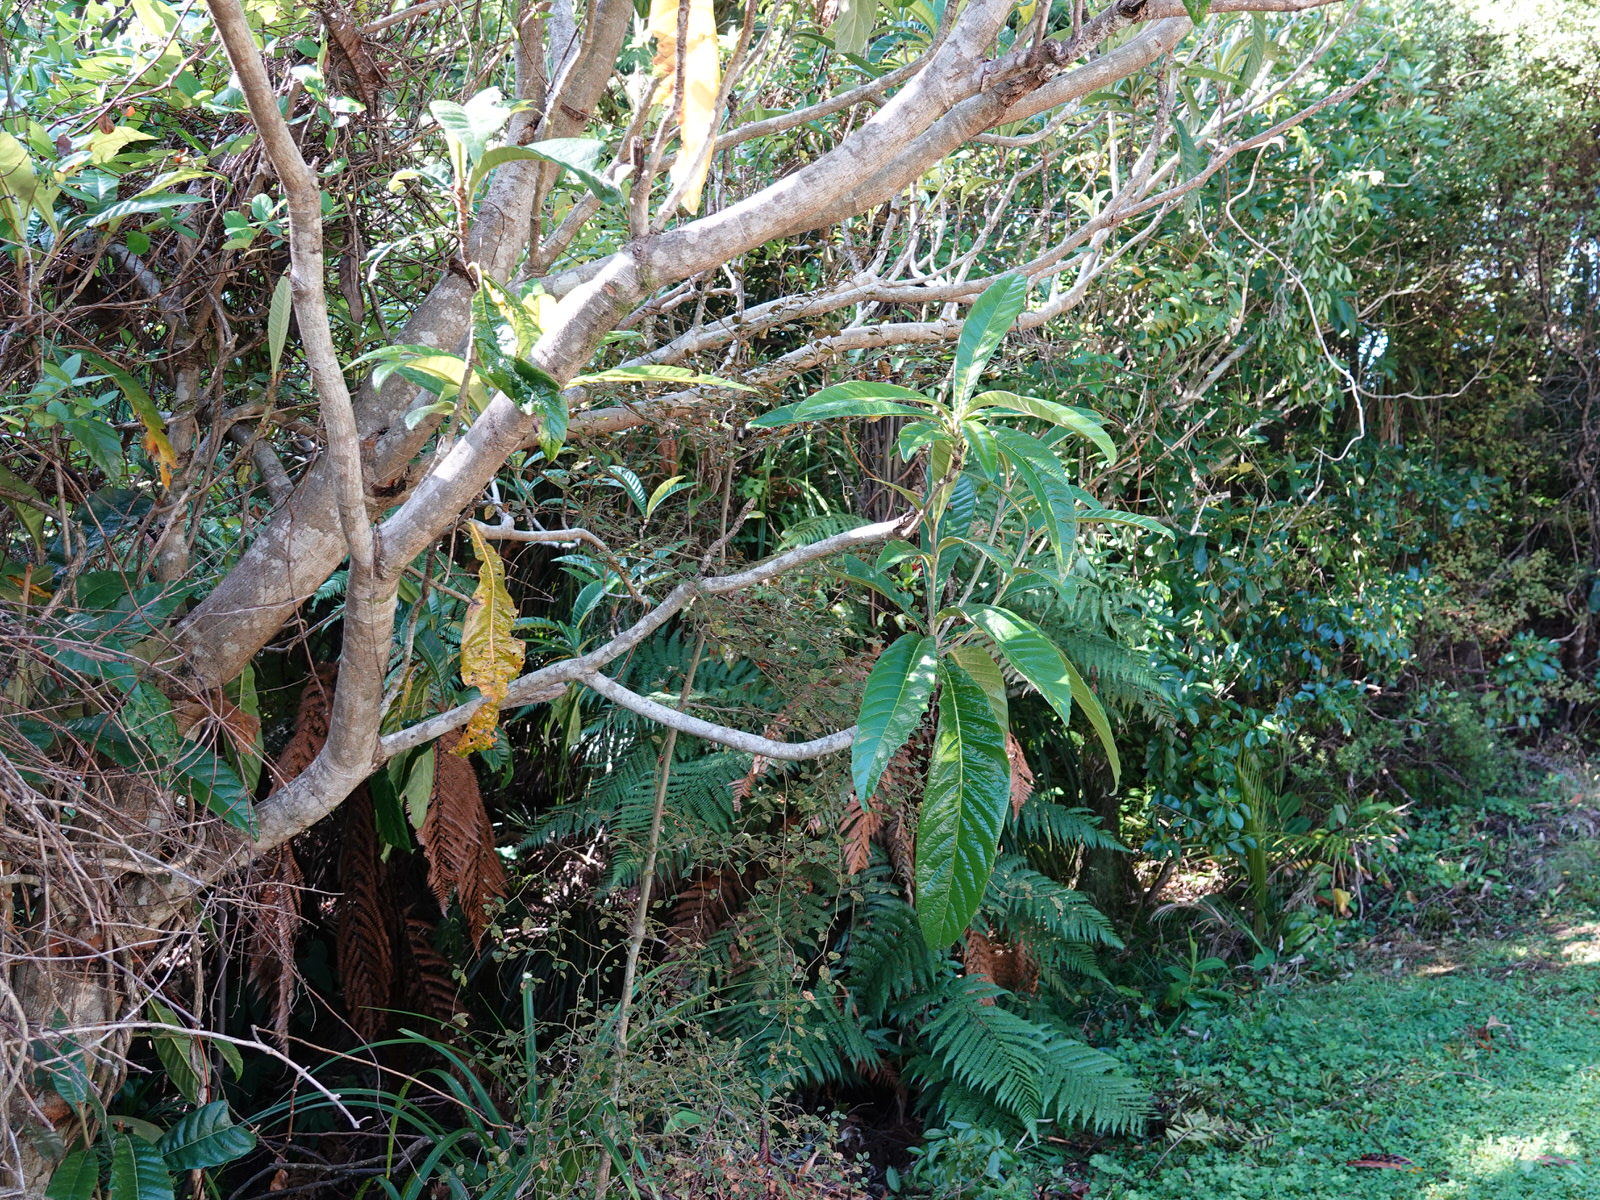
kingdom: Plantae
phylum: Tracheophyta
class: Magnoliopsida
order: Rosales
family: Rosaceae
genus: Rhaphiolepis
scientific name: Rhaphiolepis bibas
